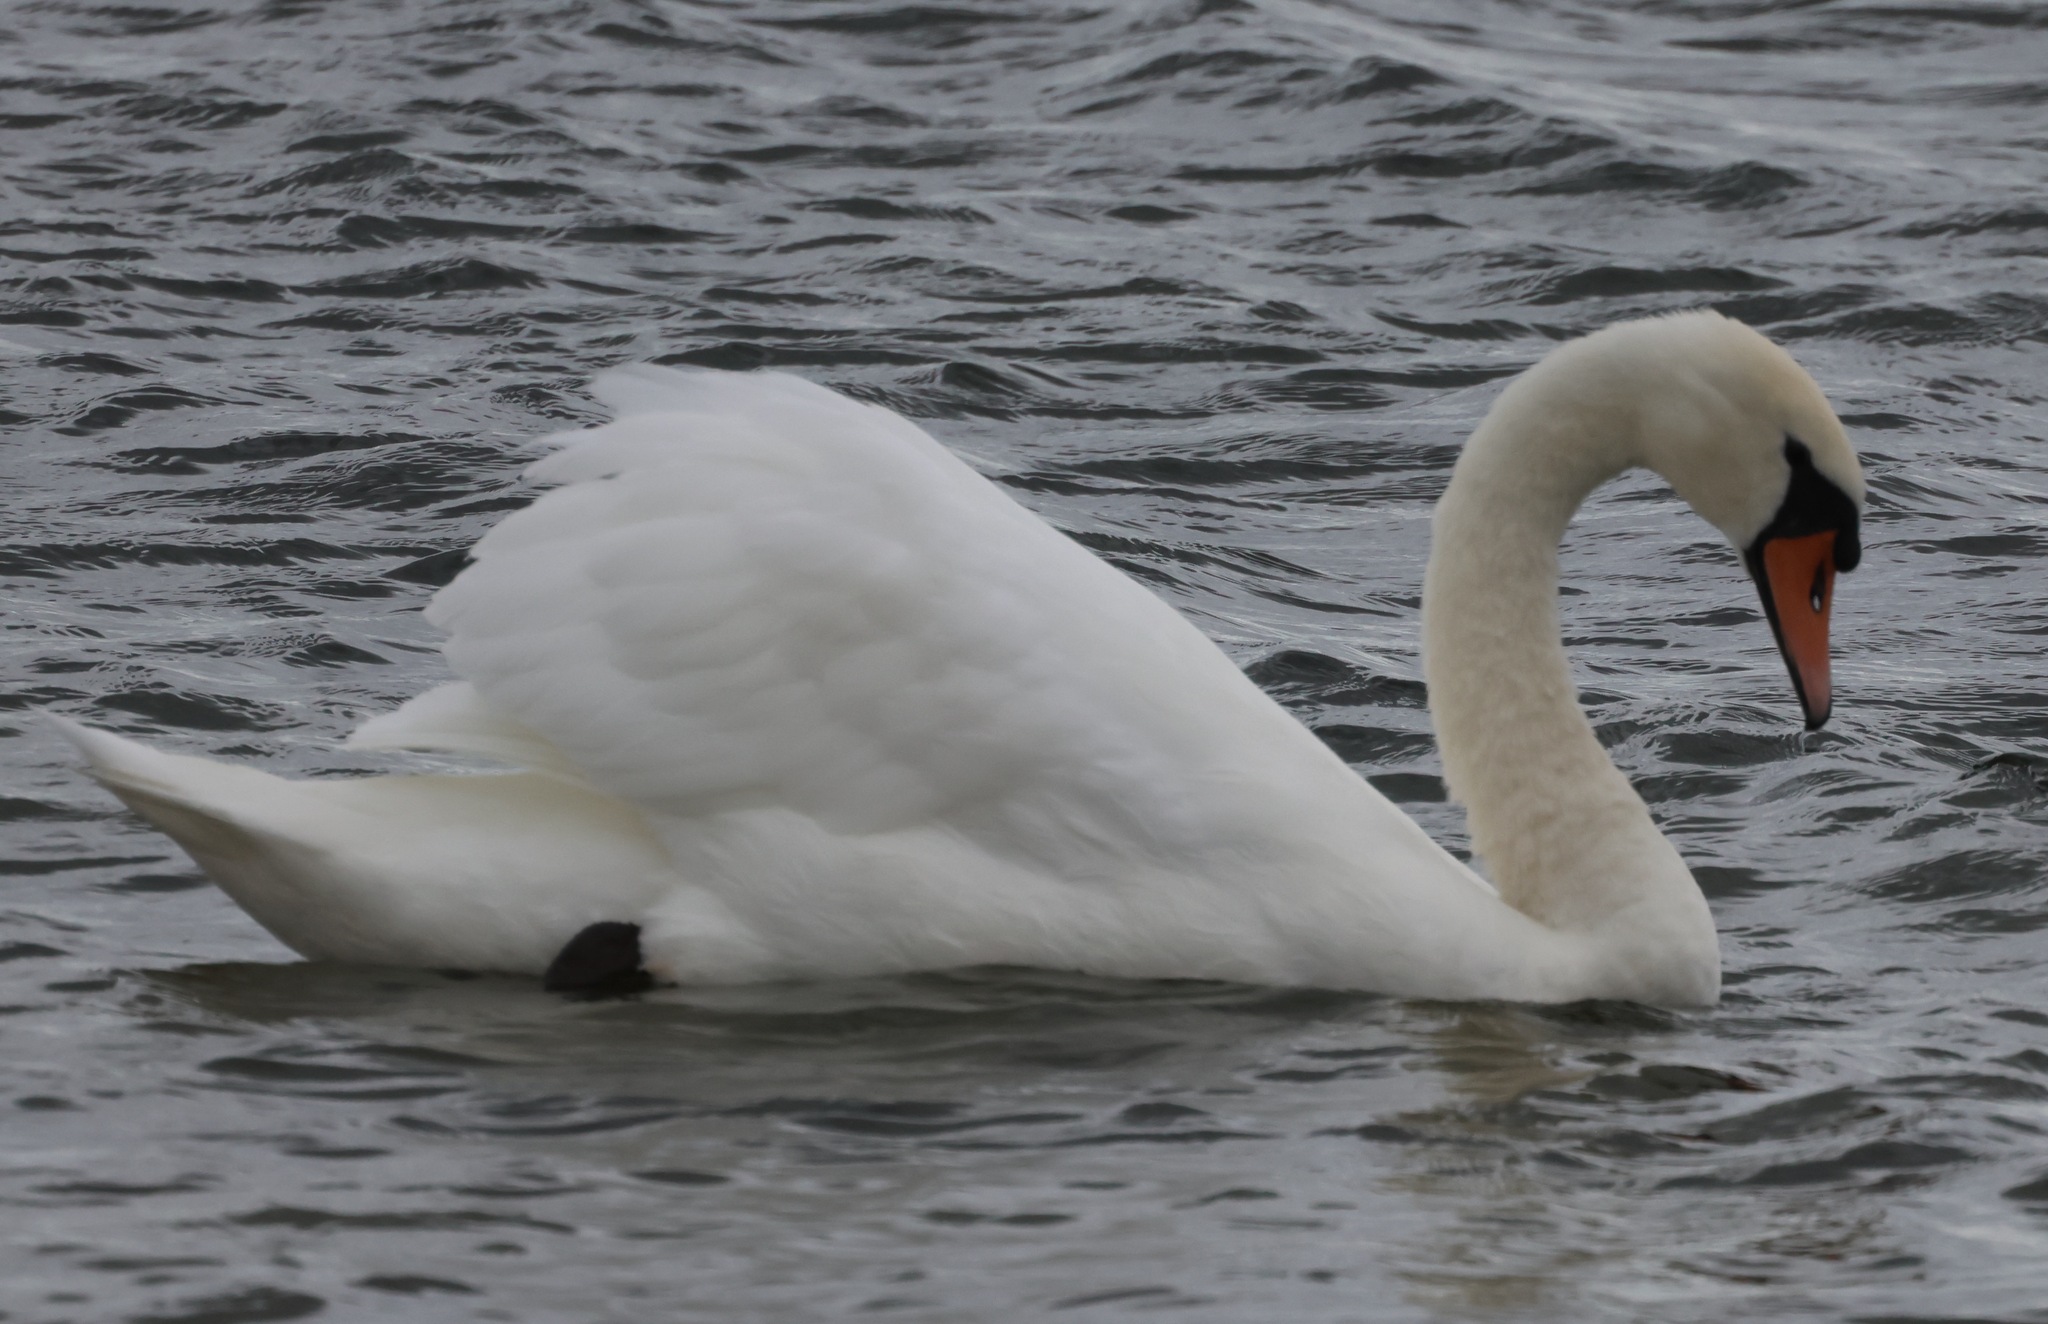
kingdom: Animalia
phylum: Chordata
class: Aves
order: Anseriformes
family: Anatidae
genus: Cygnus
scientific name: Cygnus olor
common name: Mute swan
